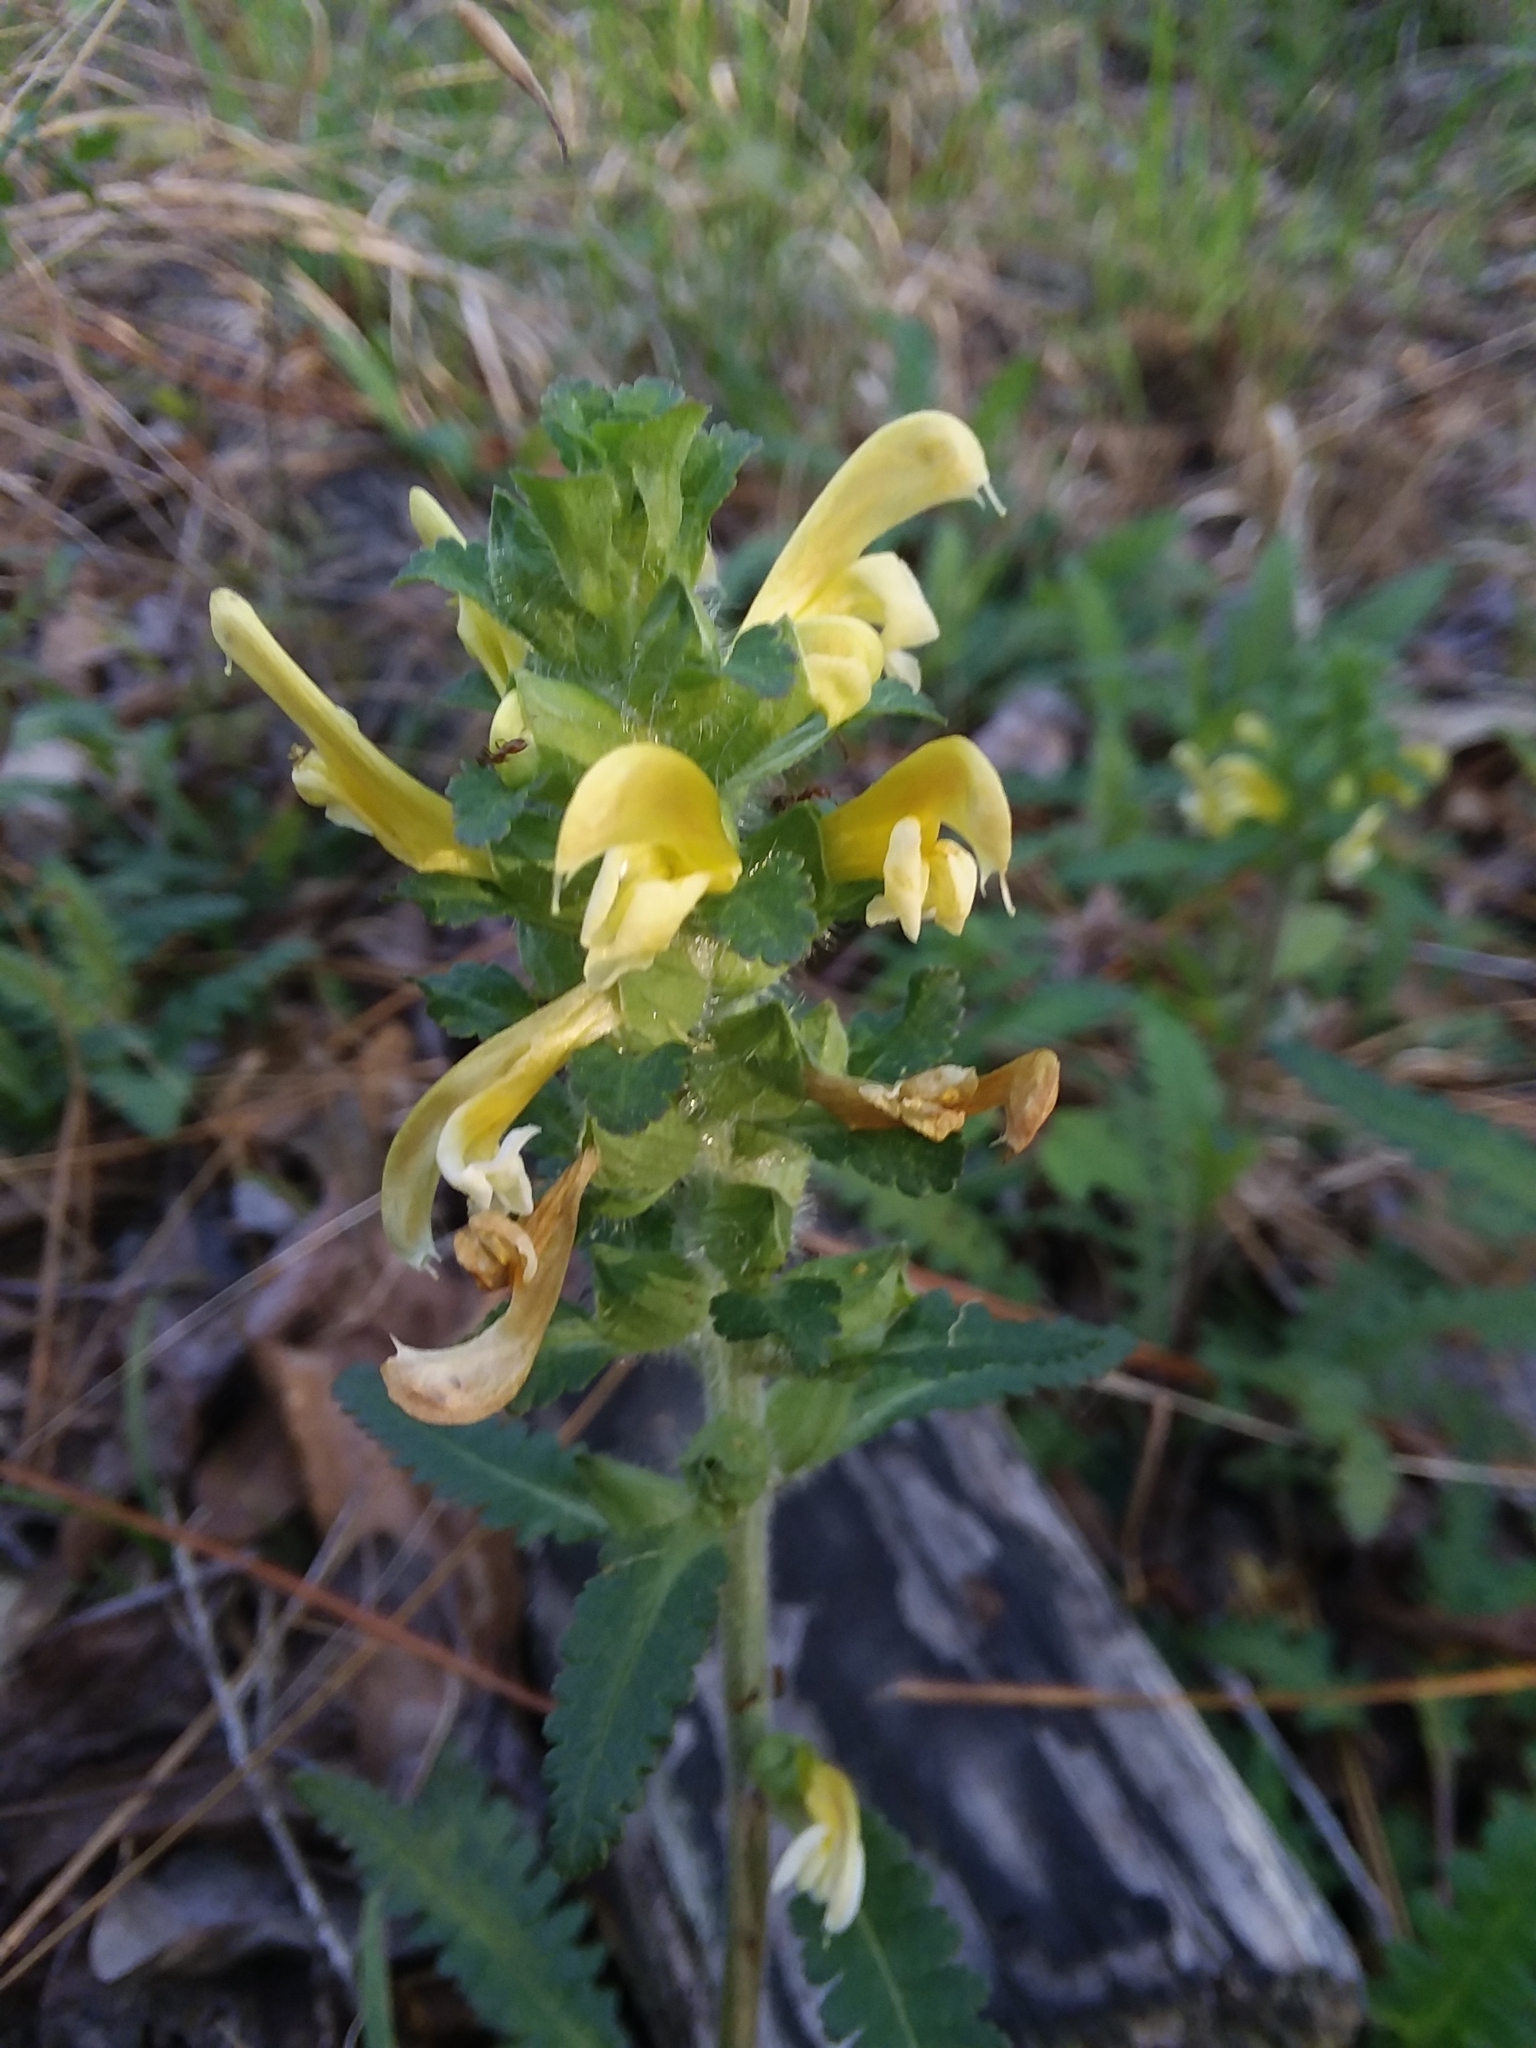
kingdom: Plantae
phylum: Tracheophyta
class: Magnoliopsida
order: Lamiales
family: Orobanchaceae
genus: Pedicularis
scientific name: Pedicularis canadensis
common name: Early lousewort
